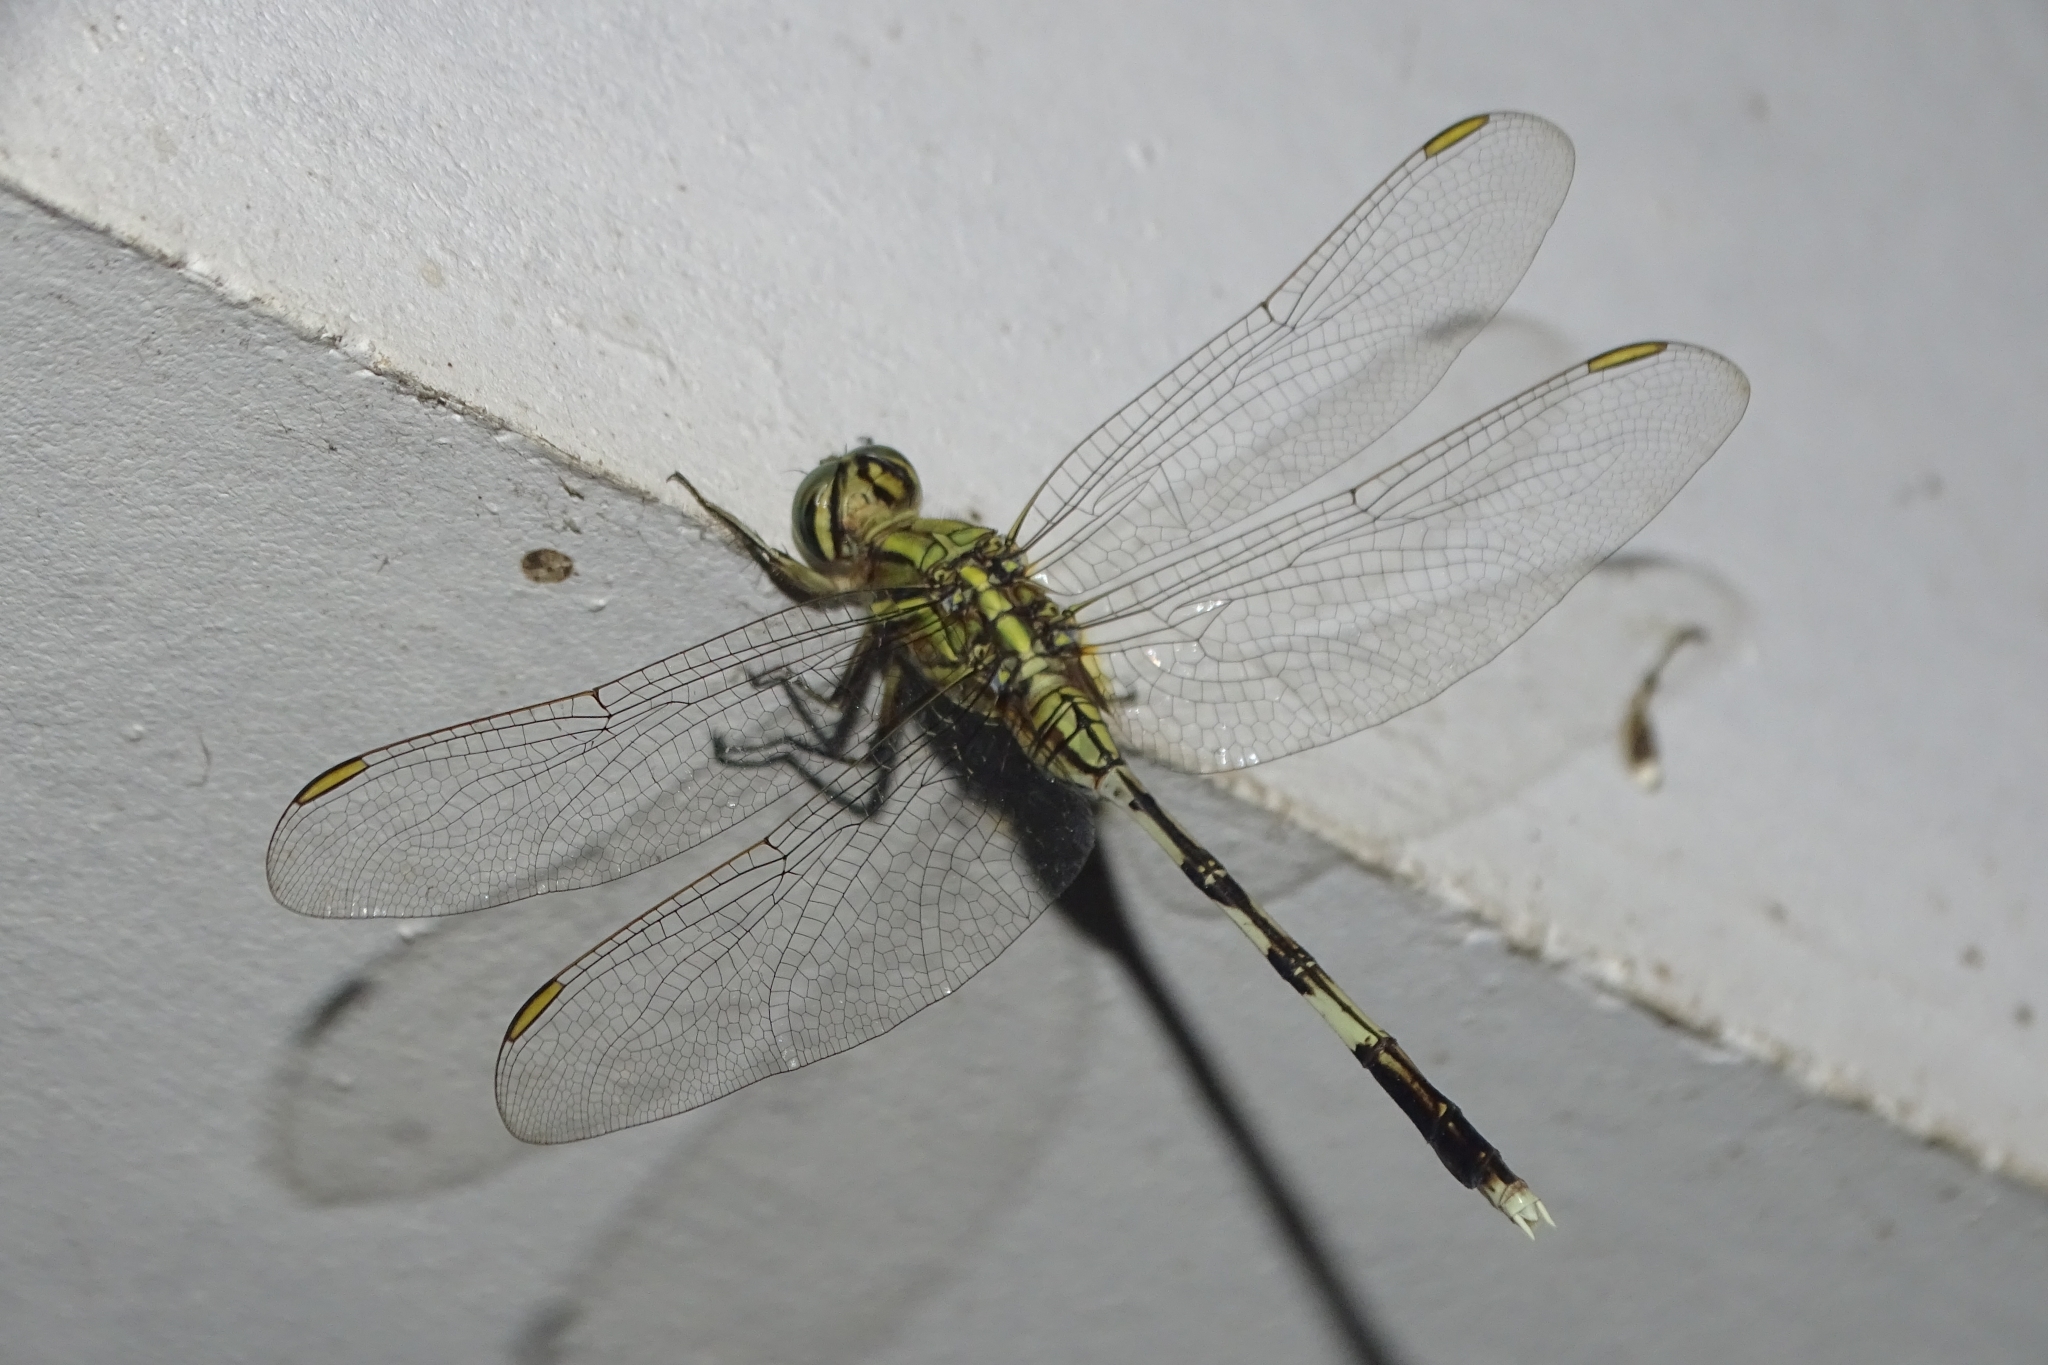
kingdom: Animalia
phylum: Arthropoda
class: Insecta
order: Odonata
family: Libellulidae
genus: Orthetrum
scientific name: Orthetrum sabina
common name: Slender skimmer
